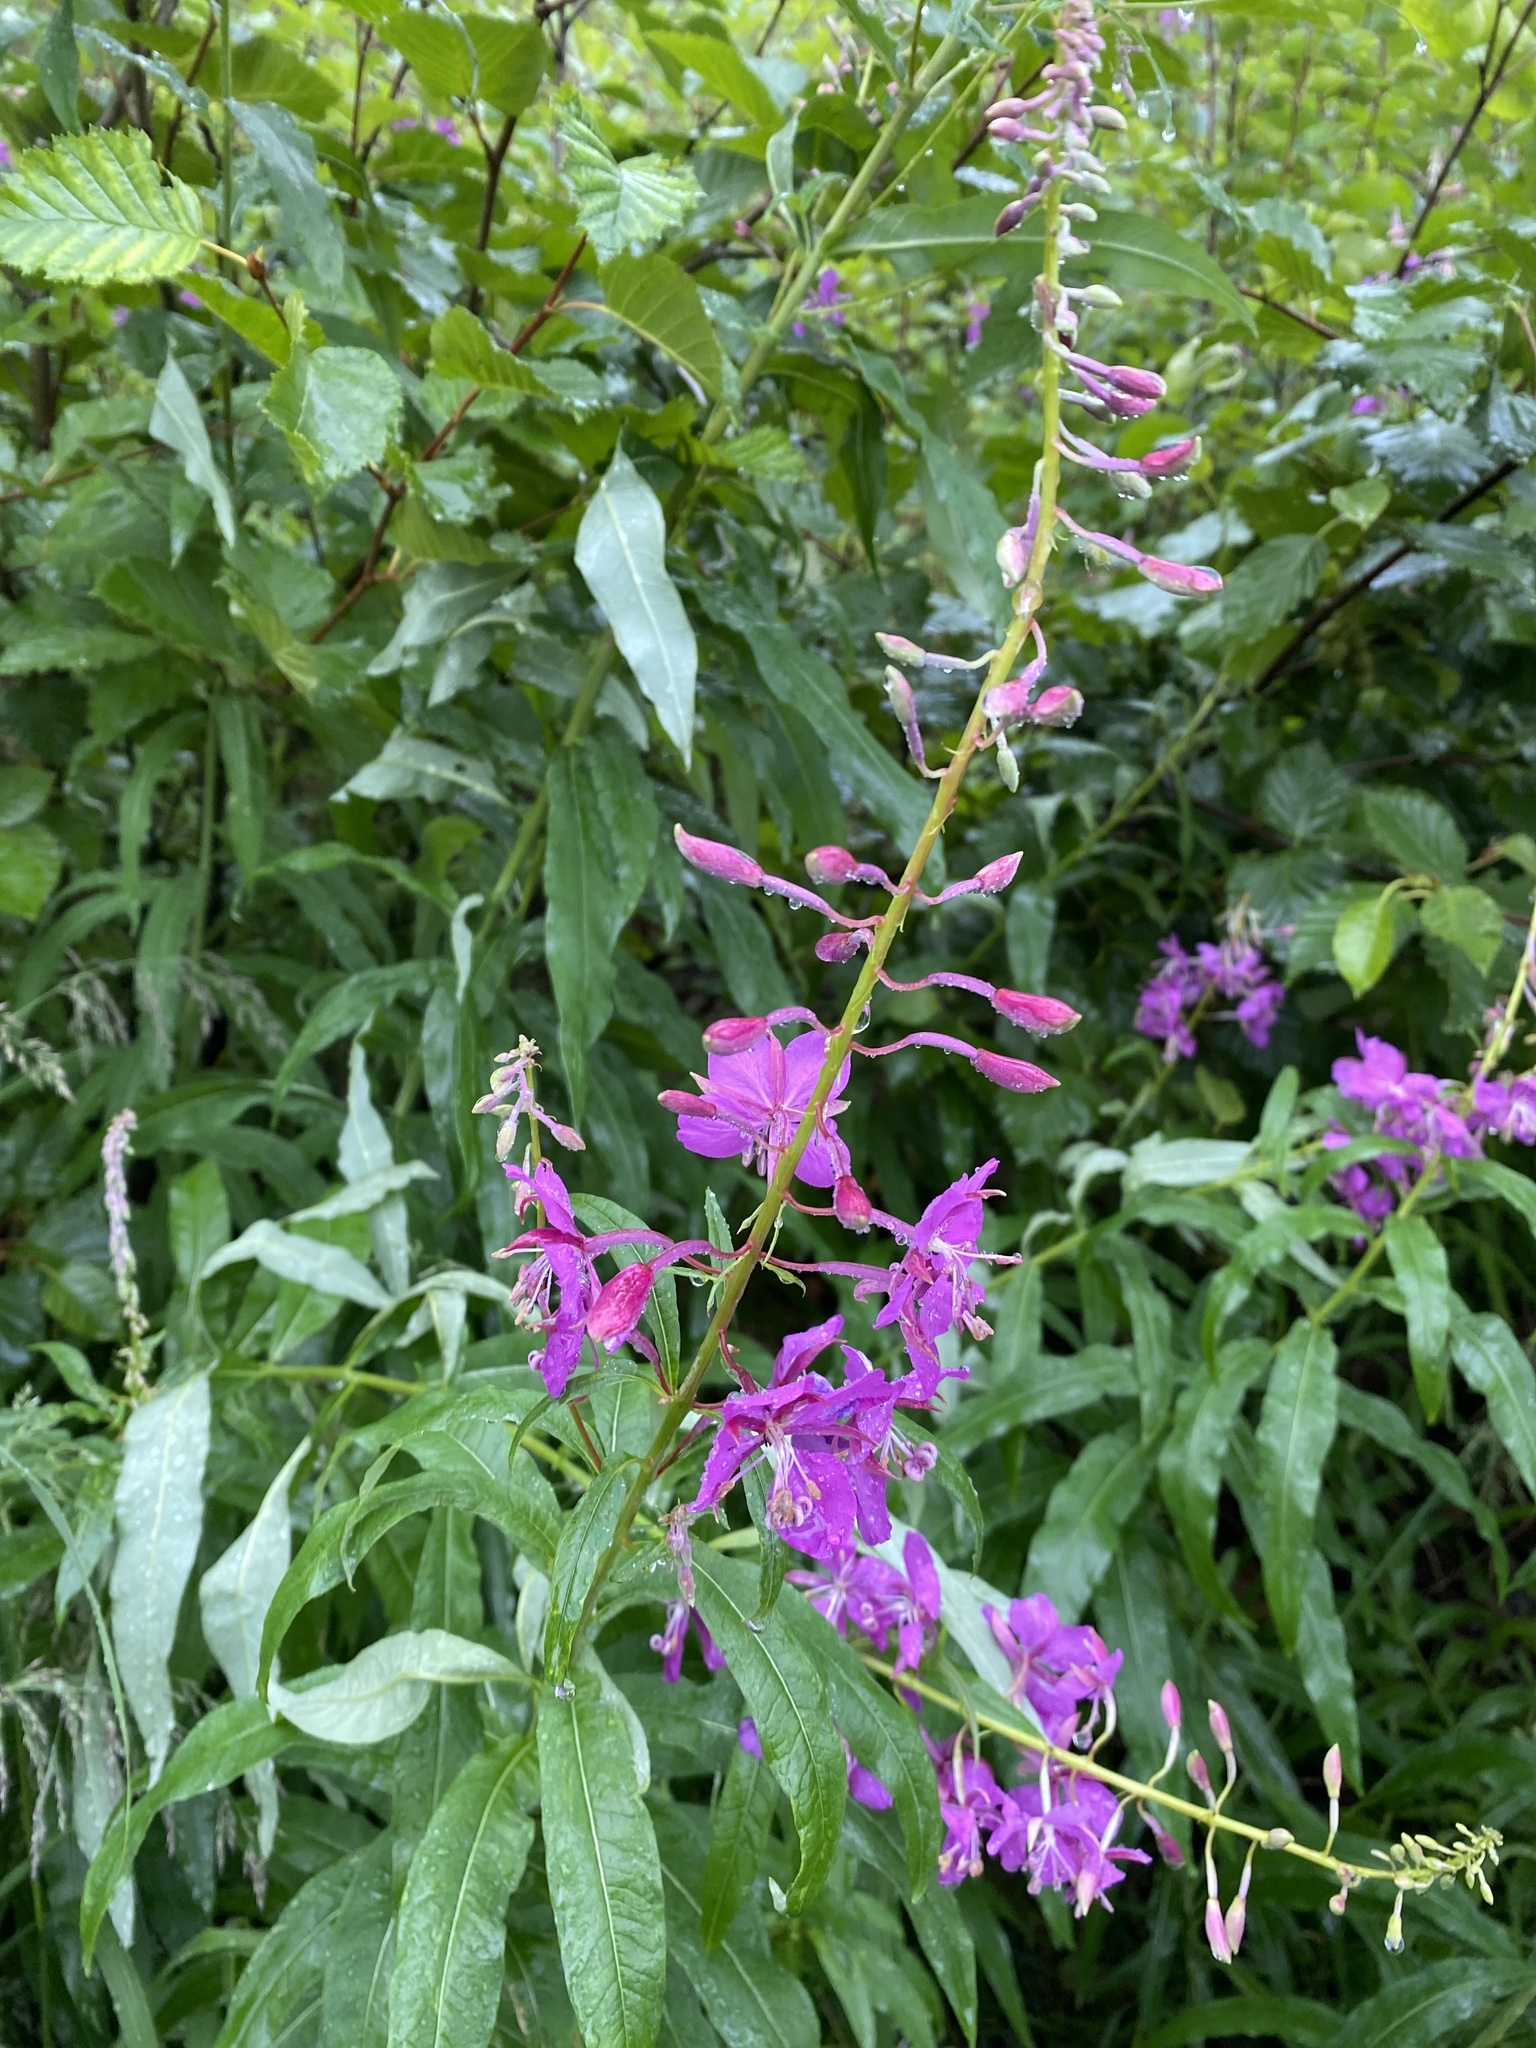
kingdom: Plantae
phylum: Tracheophyta
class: Magnoliopsida
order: Myrtales
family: Onagraceae
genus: Chamaenerion
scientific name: Chamaenerion angustifolium
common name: Fireweed
